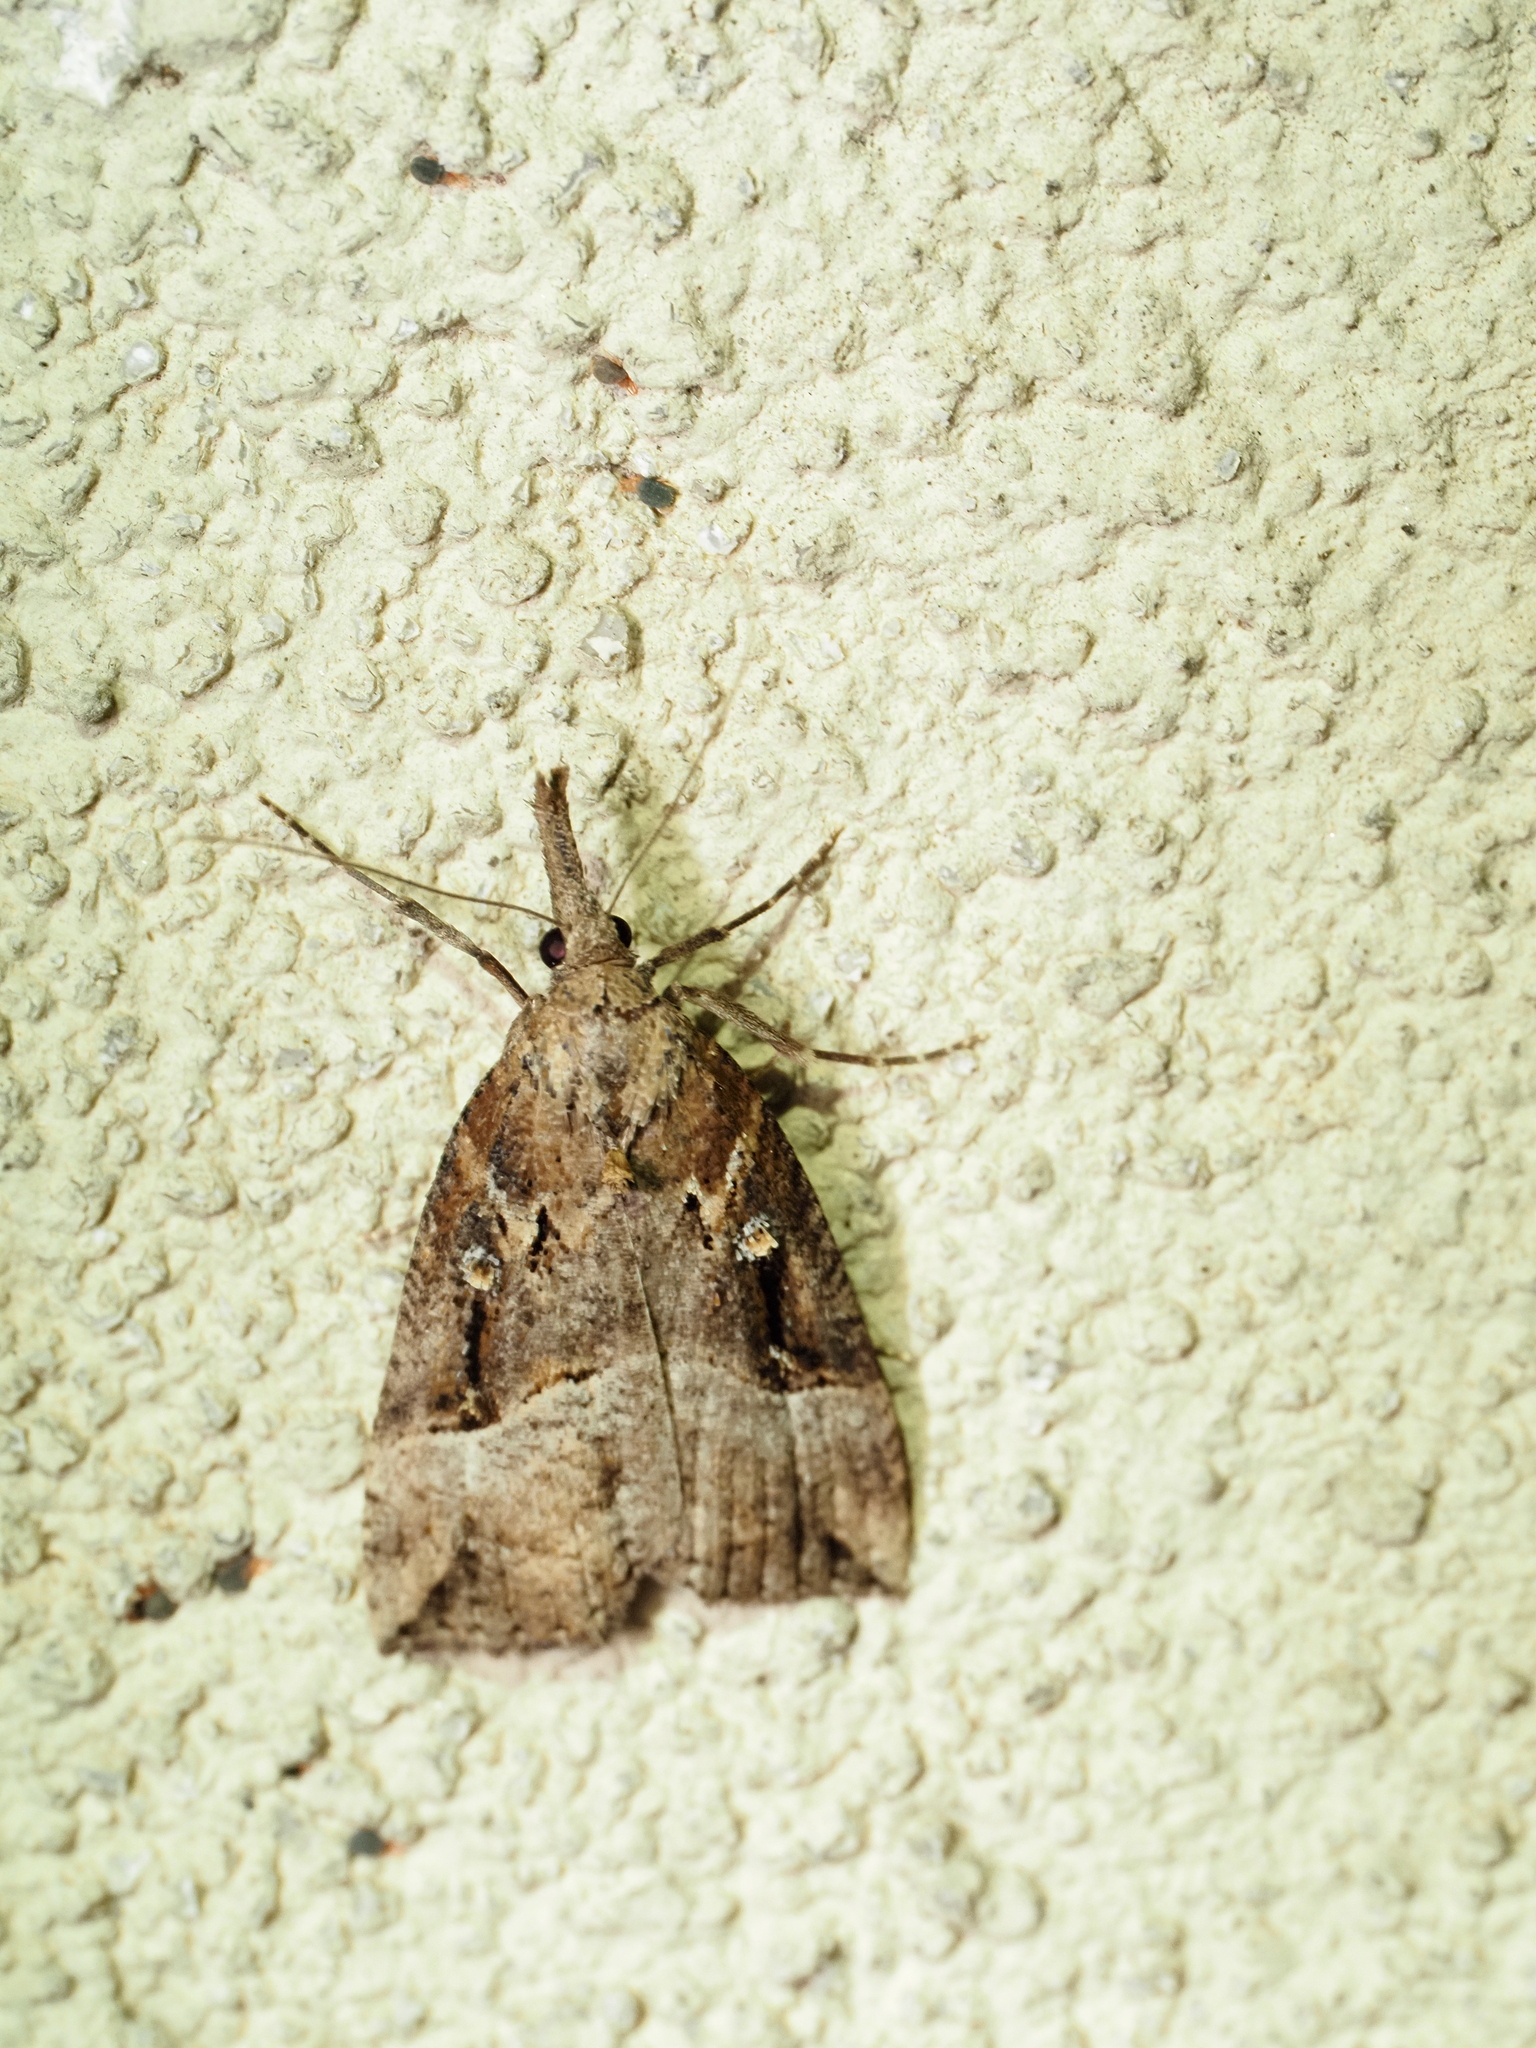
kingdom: Animalia
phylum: Arthropoda
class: Insecta
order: Lepidoptera
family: Erebidae
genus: Hypena
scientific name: Hypena rostralis
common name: Buttoned snout
